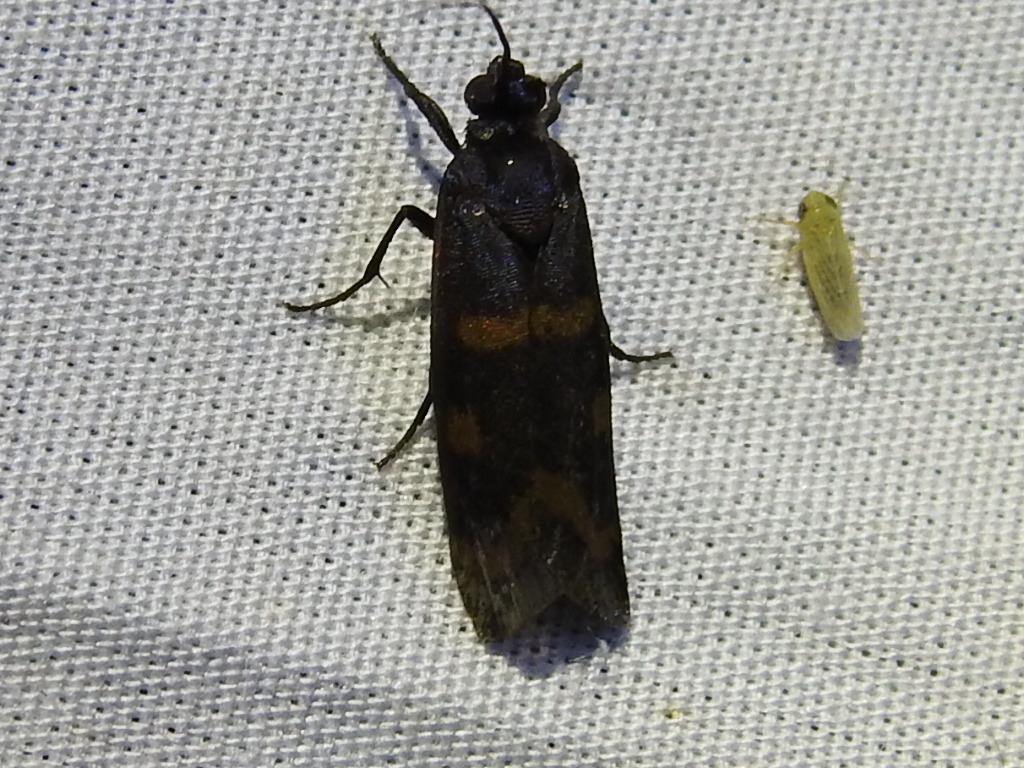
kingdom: Animalia
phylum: Arthropoda
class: Insecta
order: Lepidoptera
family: Noctuidae
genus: Cydosia
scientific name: Cydosia aurivitta
